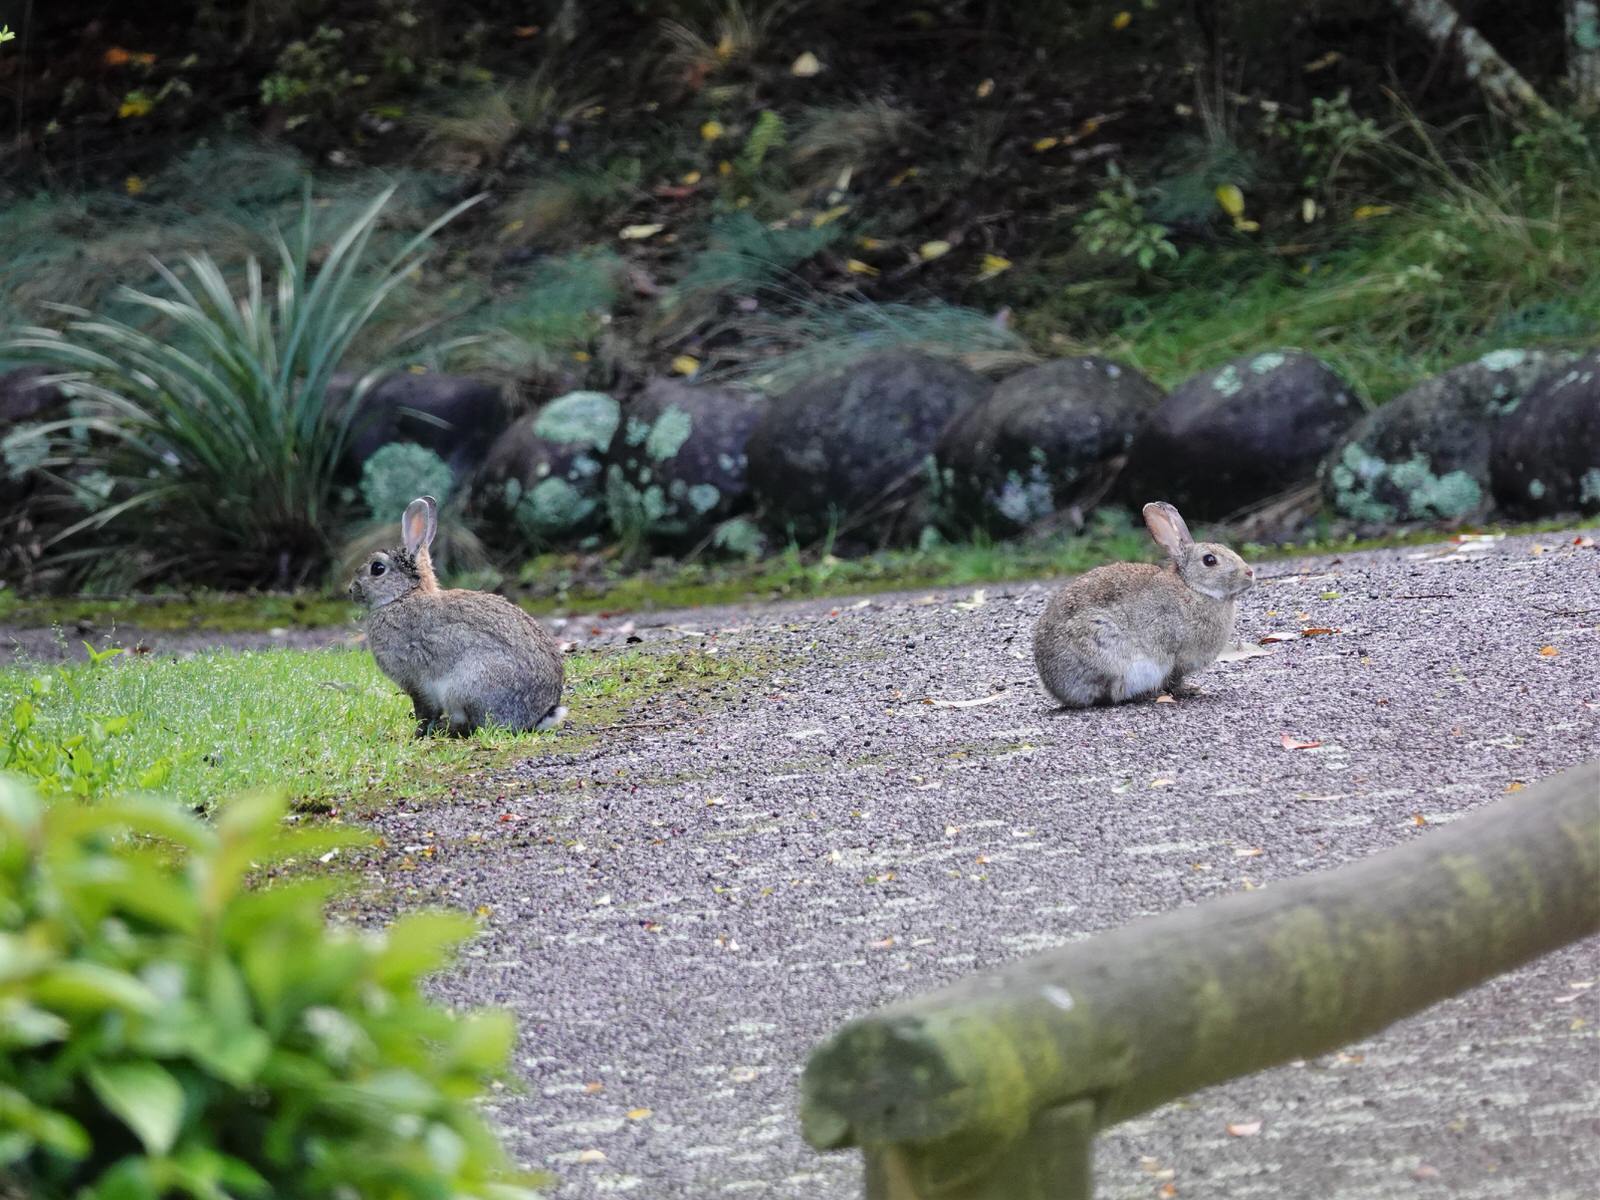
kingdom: Animalia
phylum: Chordata
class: Mammalia
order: Lagomorpha
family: Leporidae
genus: Oryctolagus
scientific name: Oryctolagus cuniculus
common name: European rabbit
